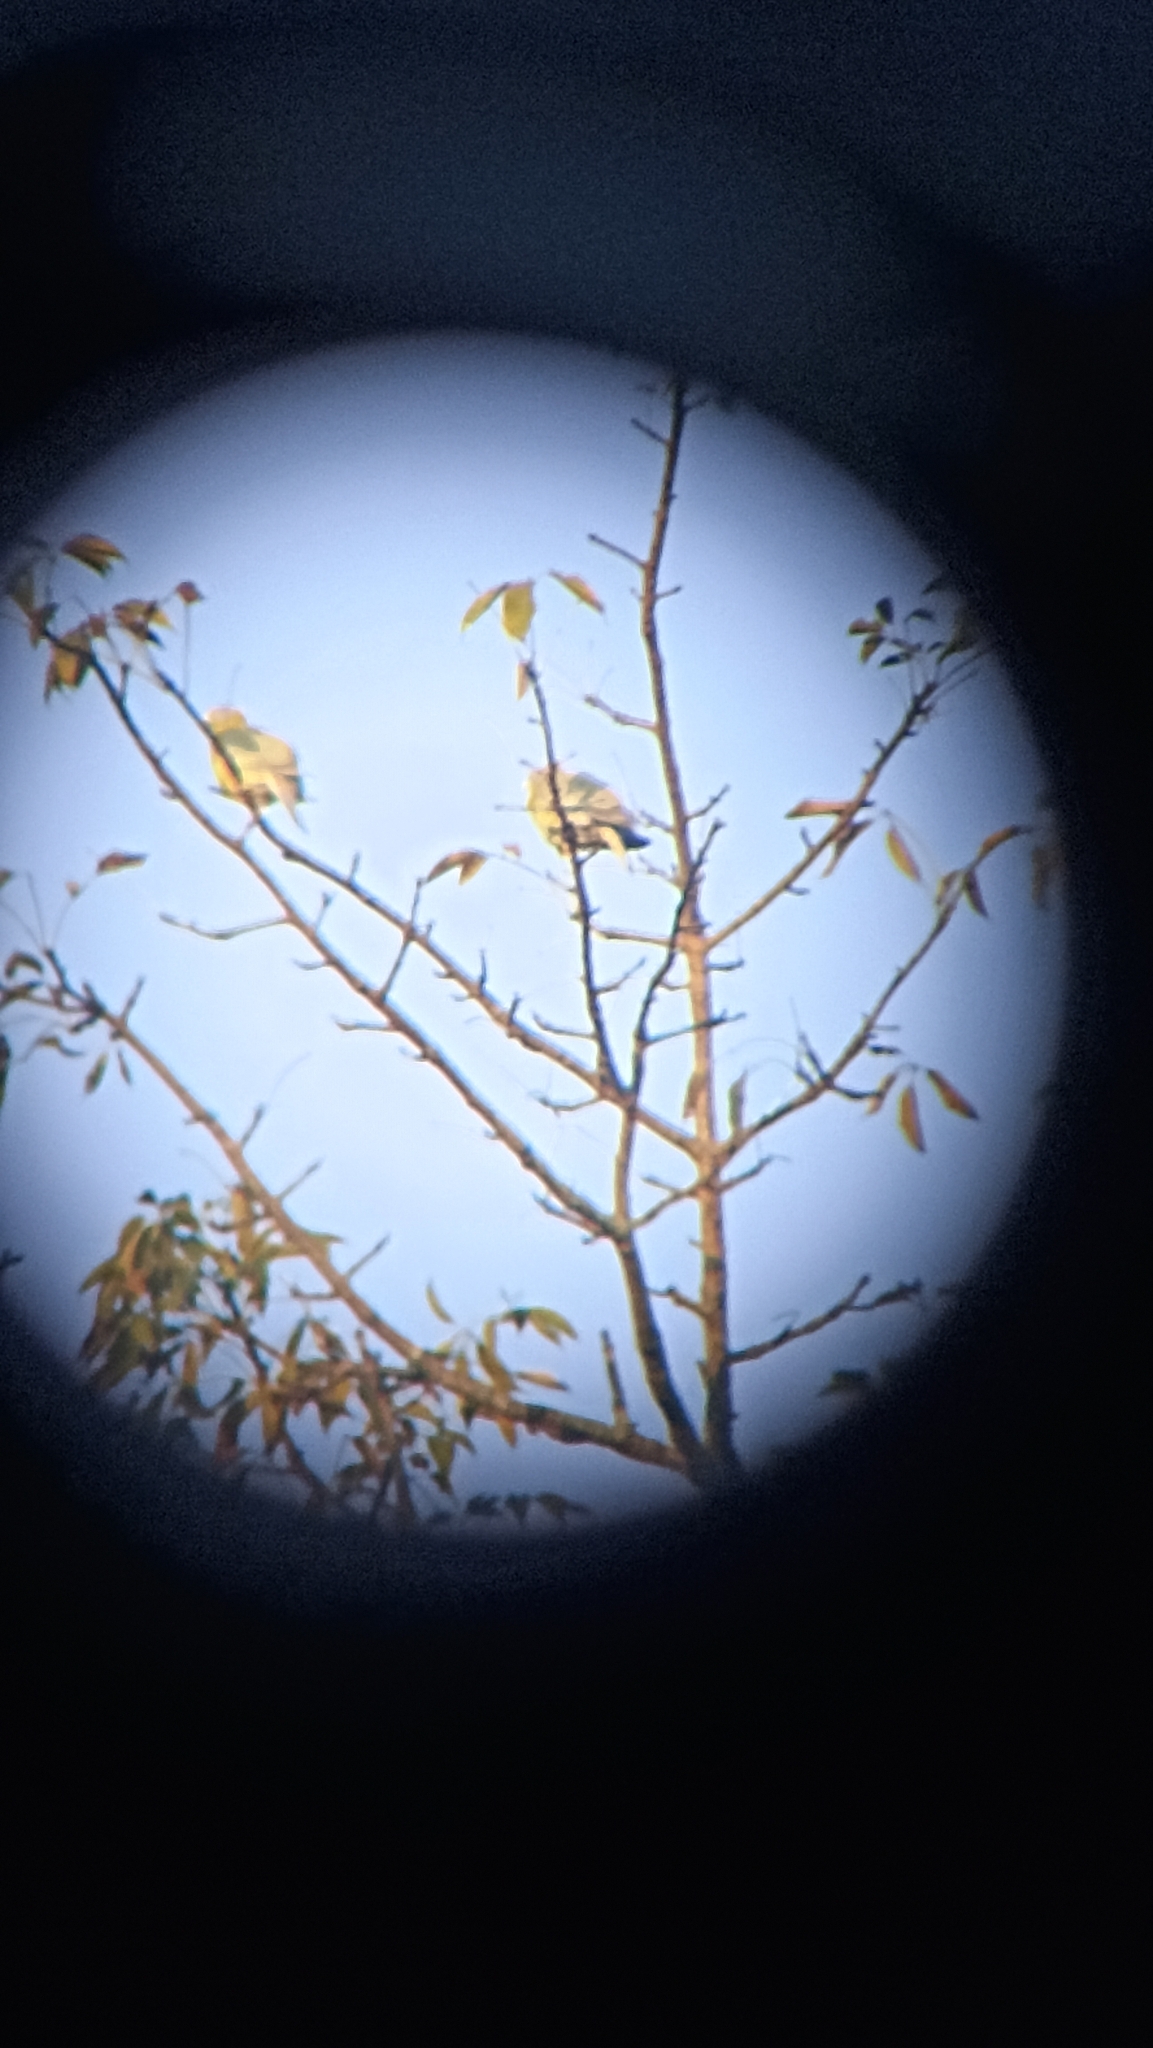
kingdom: Animalia
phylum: Chordata
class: Aves
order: Columbiformes
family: Columbidae
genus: Treron
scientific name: Treron phoenicopterus
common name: Yellow-footed green pigeon
